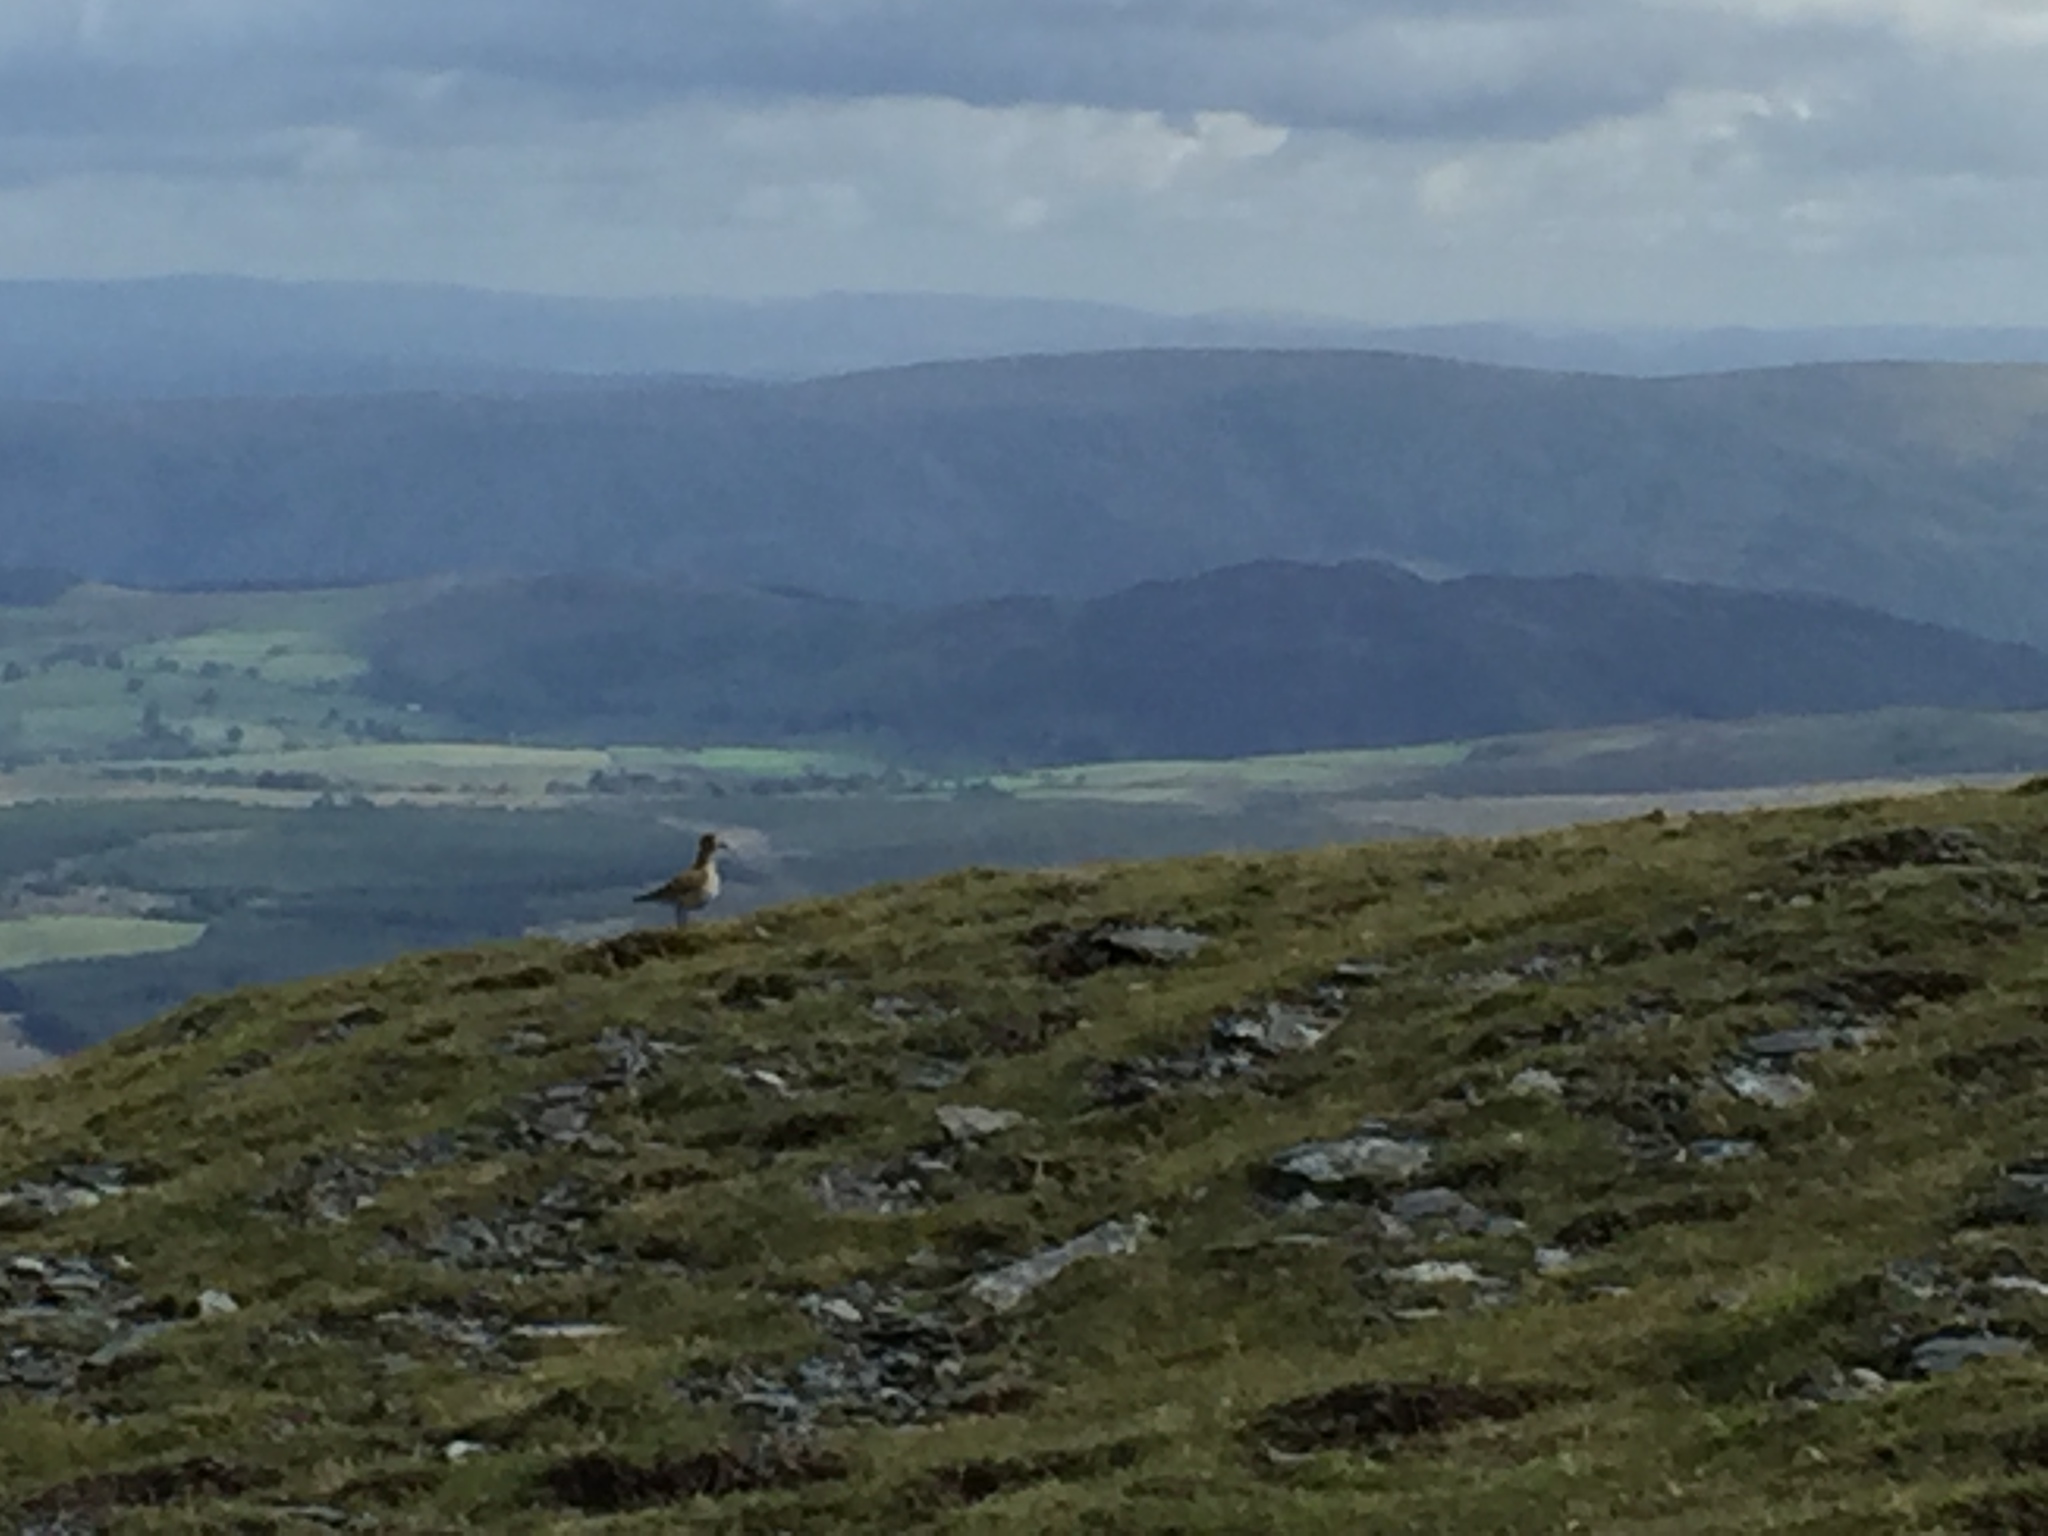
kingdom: Animalia
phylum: Chordata
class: Aves
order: Charadriiformes
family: Charadriidae
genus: Pluvialis
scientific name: Pluvialis apricaria
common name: European golden plover
